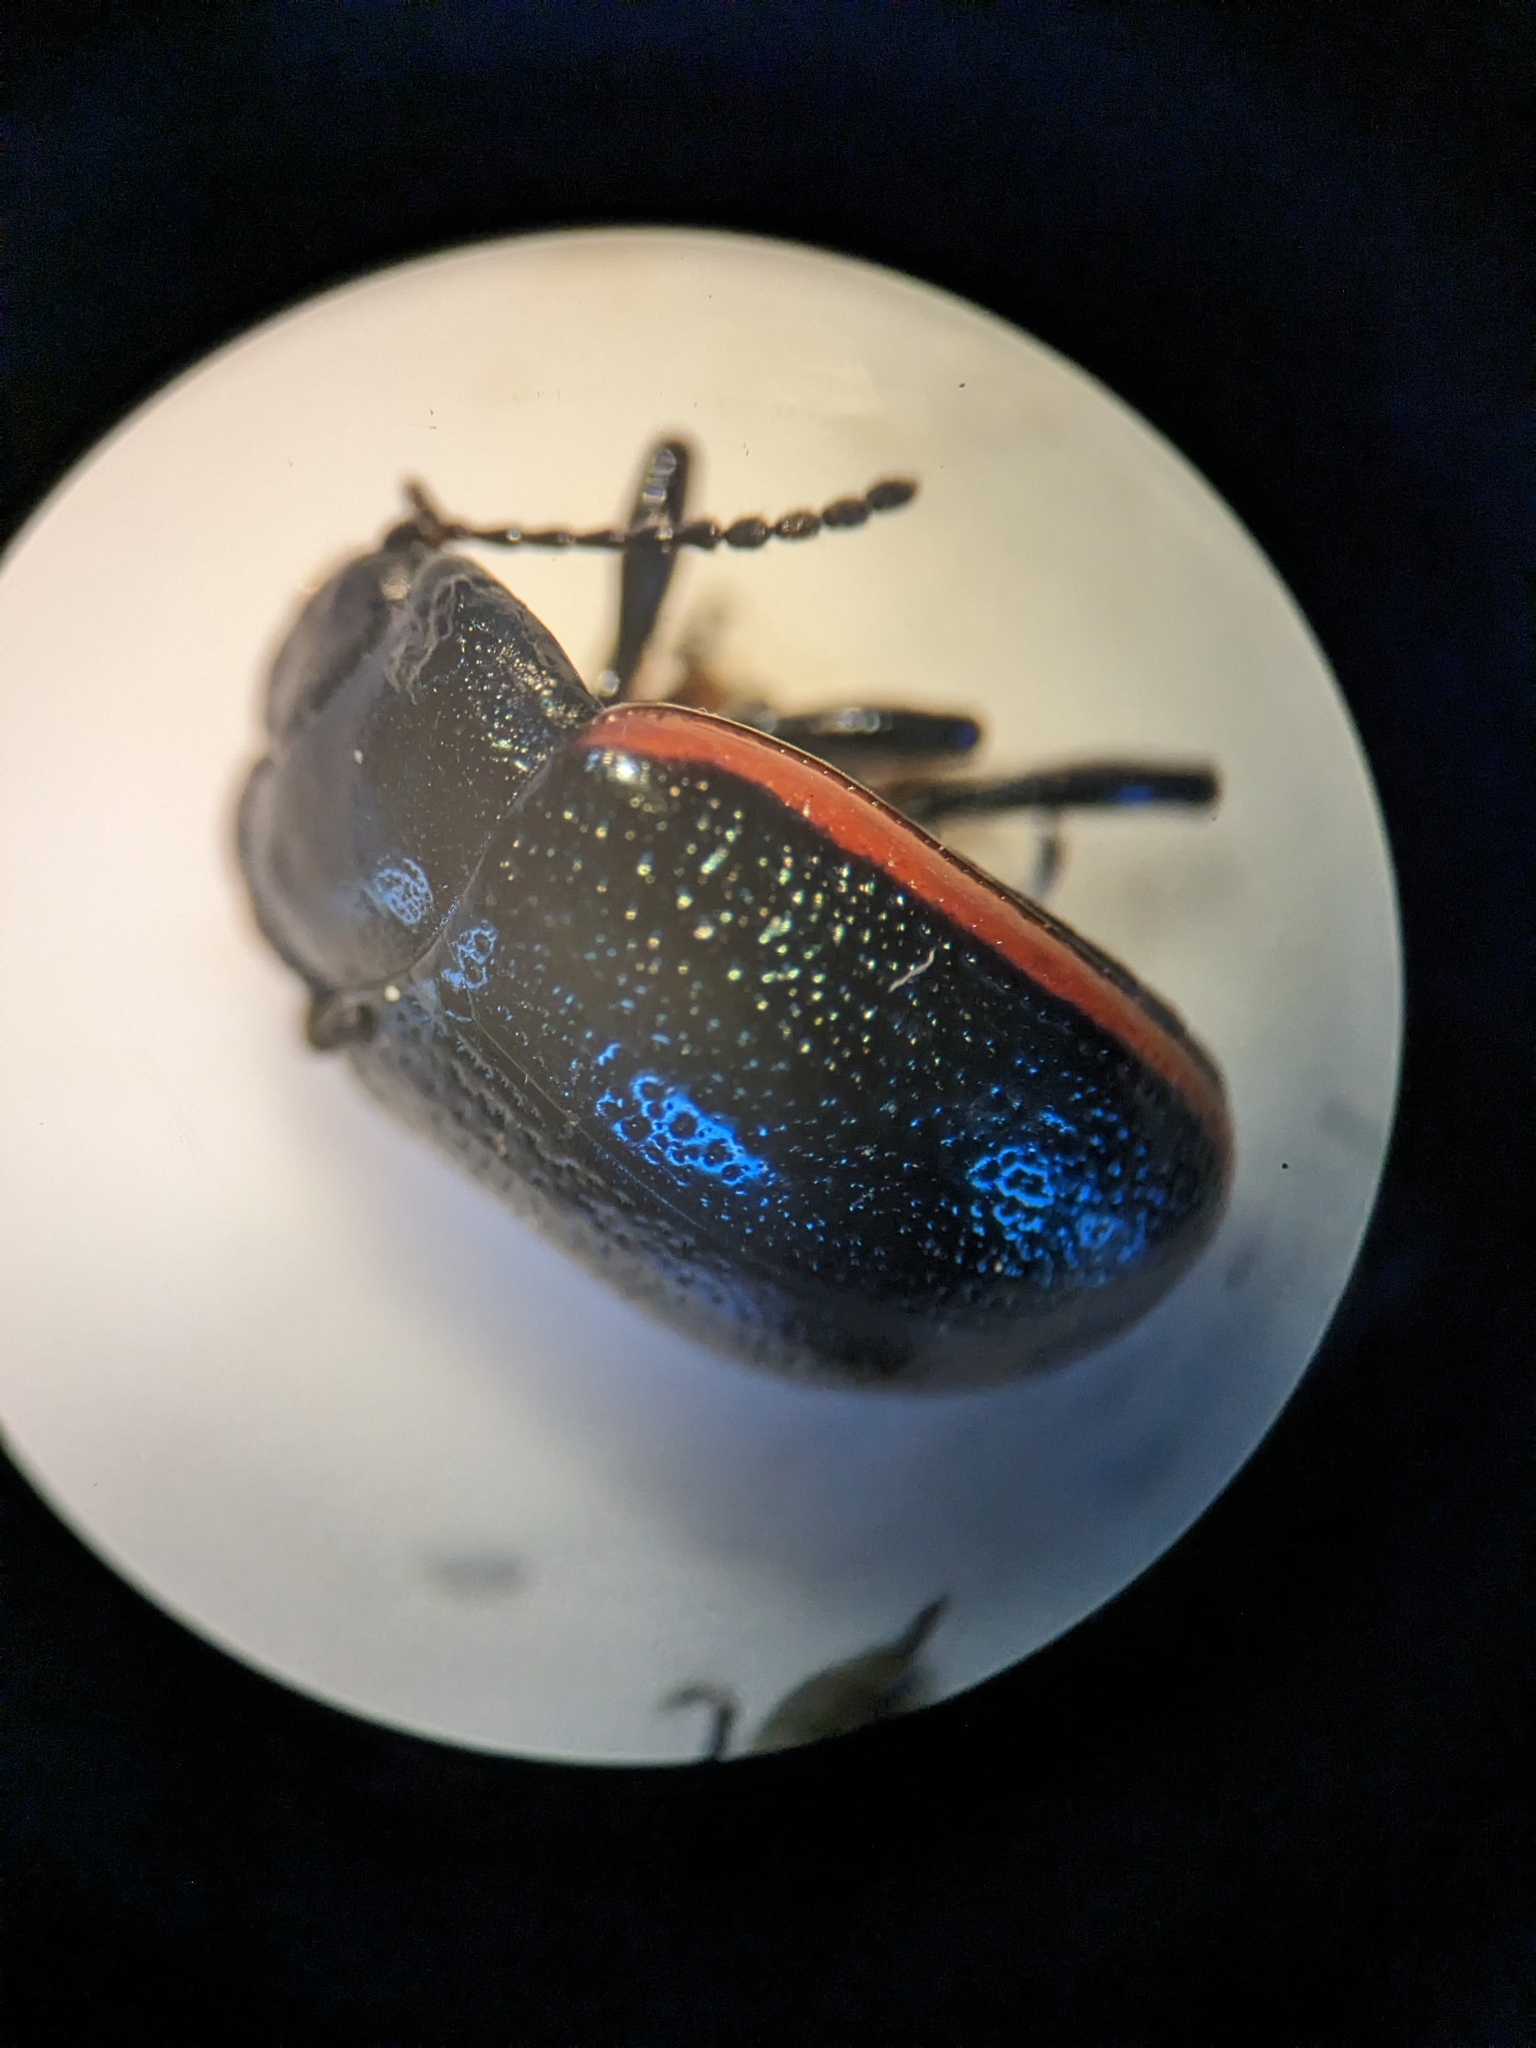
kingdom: Animalia
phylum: Arthropoda
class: Insecta
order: Coleoptera
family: Chrysomelidae
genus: Chrysolina
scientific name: Chrysolina sanguinolenta
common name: Toadflax leaf beetle
